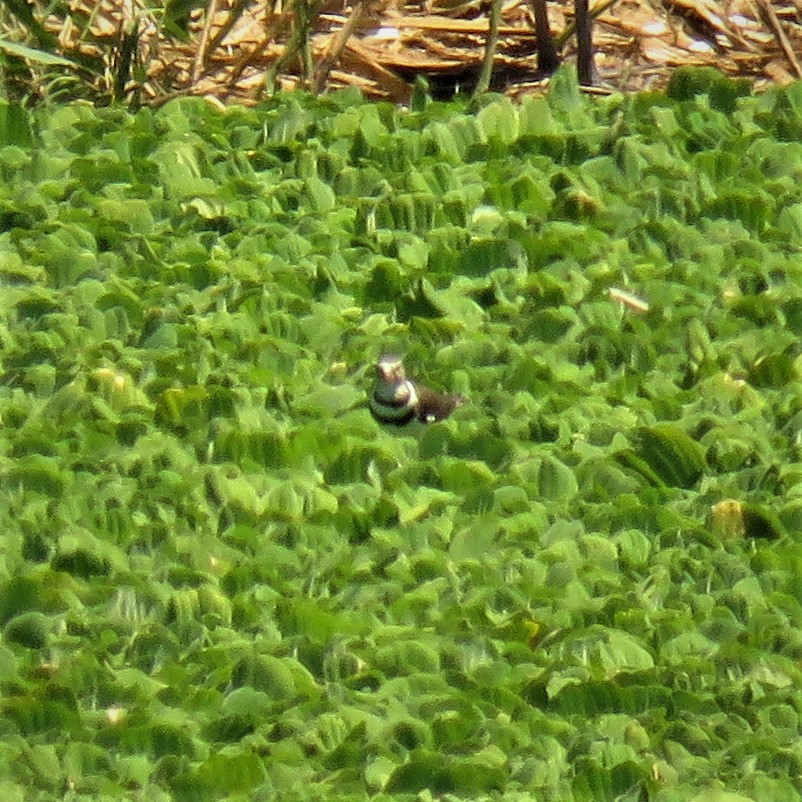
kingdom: Animalia
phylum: Chordata
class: Aves
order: Charadriiformes
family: Charadriidae
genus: Charadrius
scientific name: Charadrius tricollaris
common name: Three-banded plover
